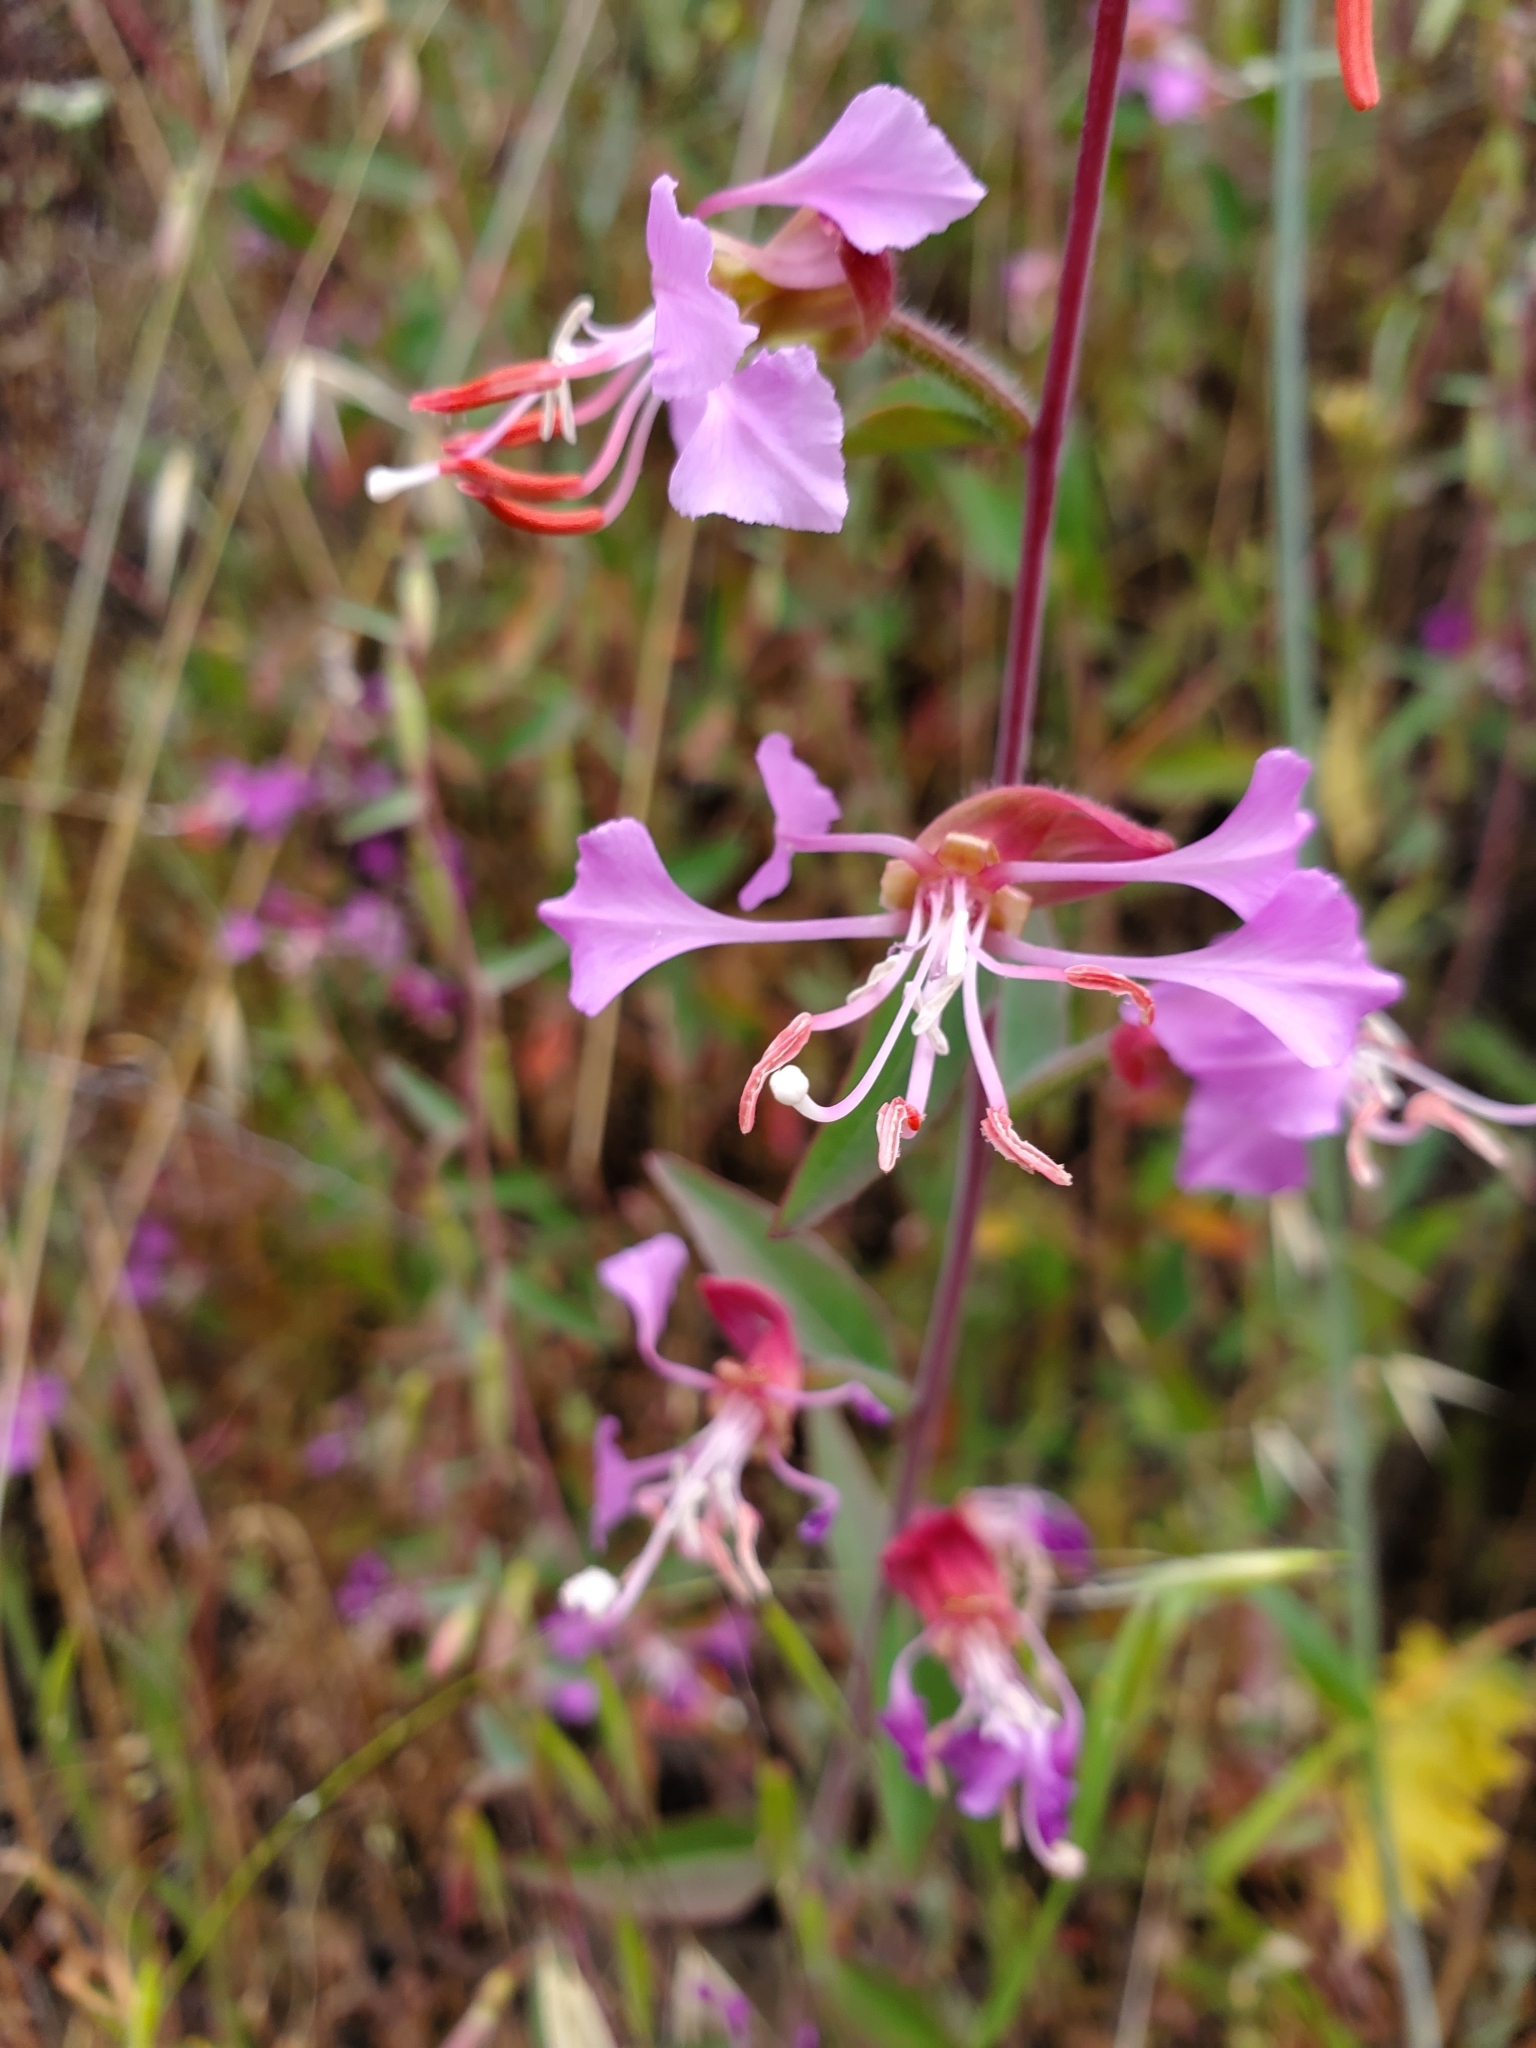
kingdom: Plantae
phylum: Tracheophyta
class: Magnoliopsida
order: Myrtales
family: Onagraceae
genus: Clarkia
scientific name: Clarkia unguiculata
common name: Clarkia
